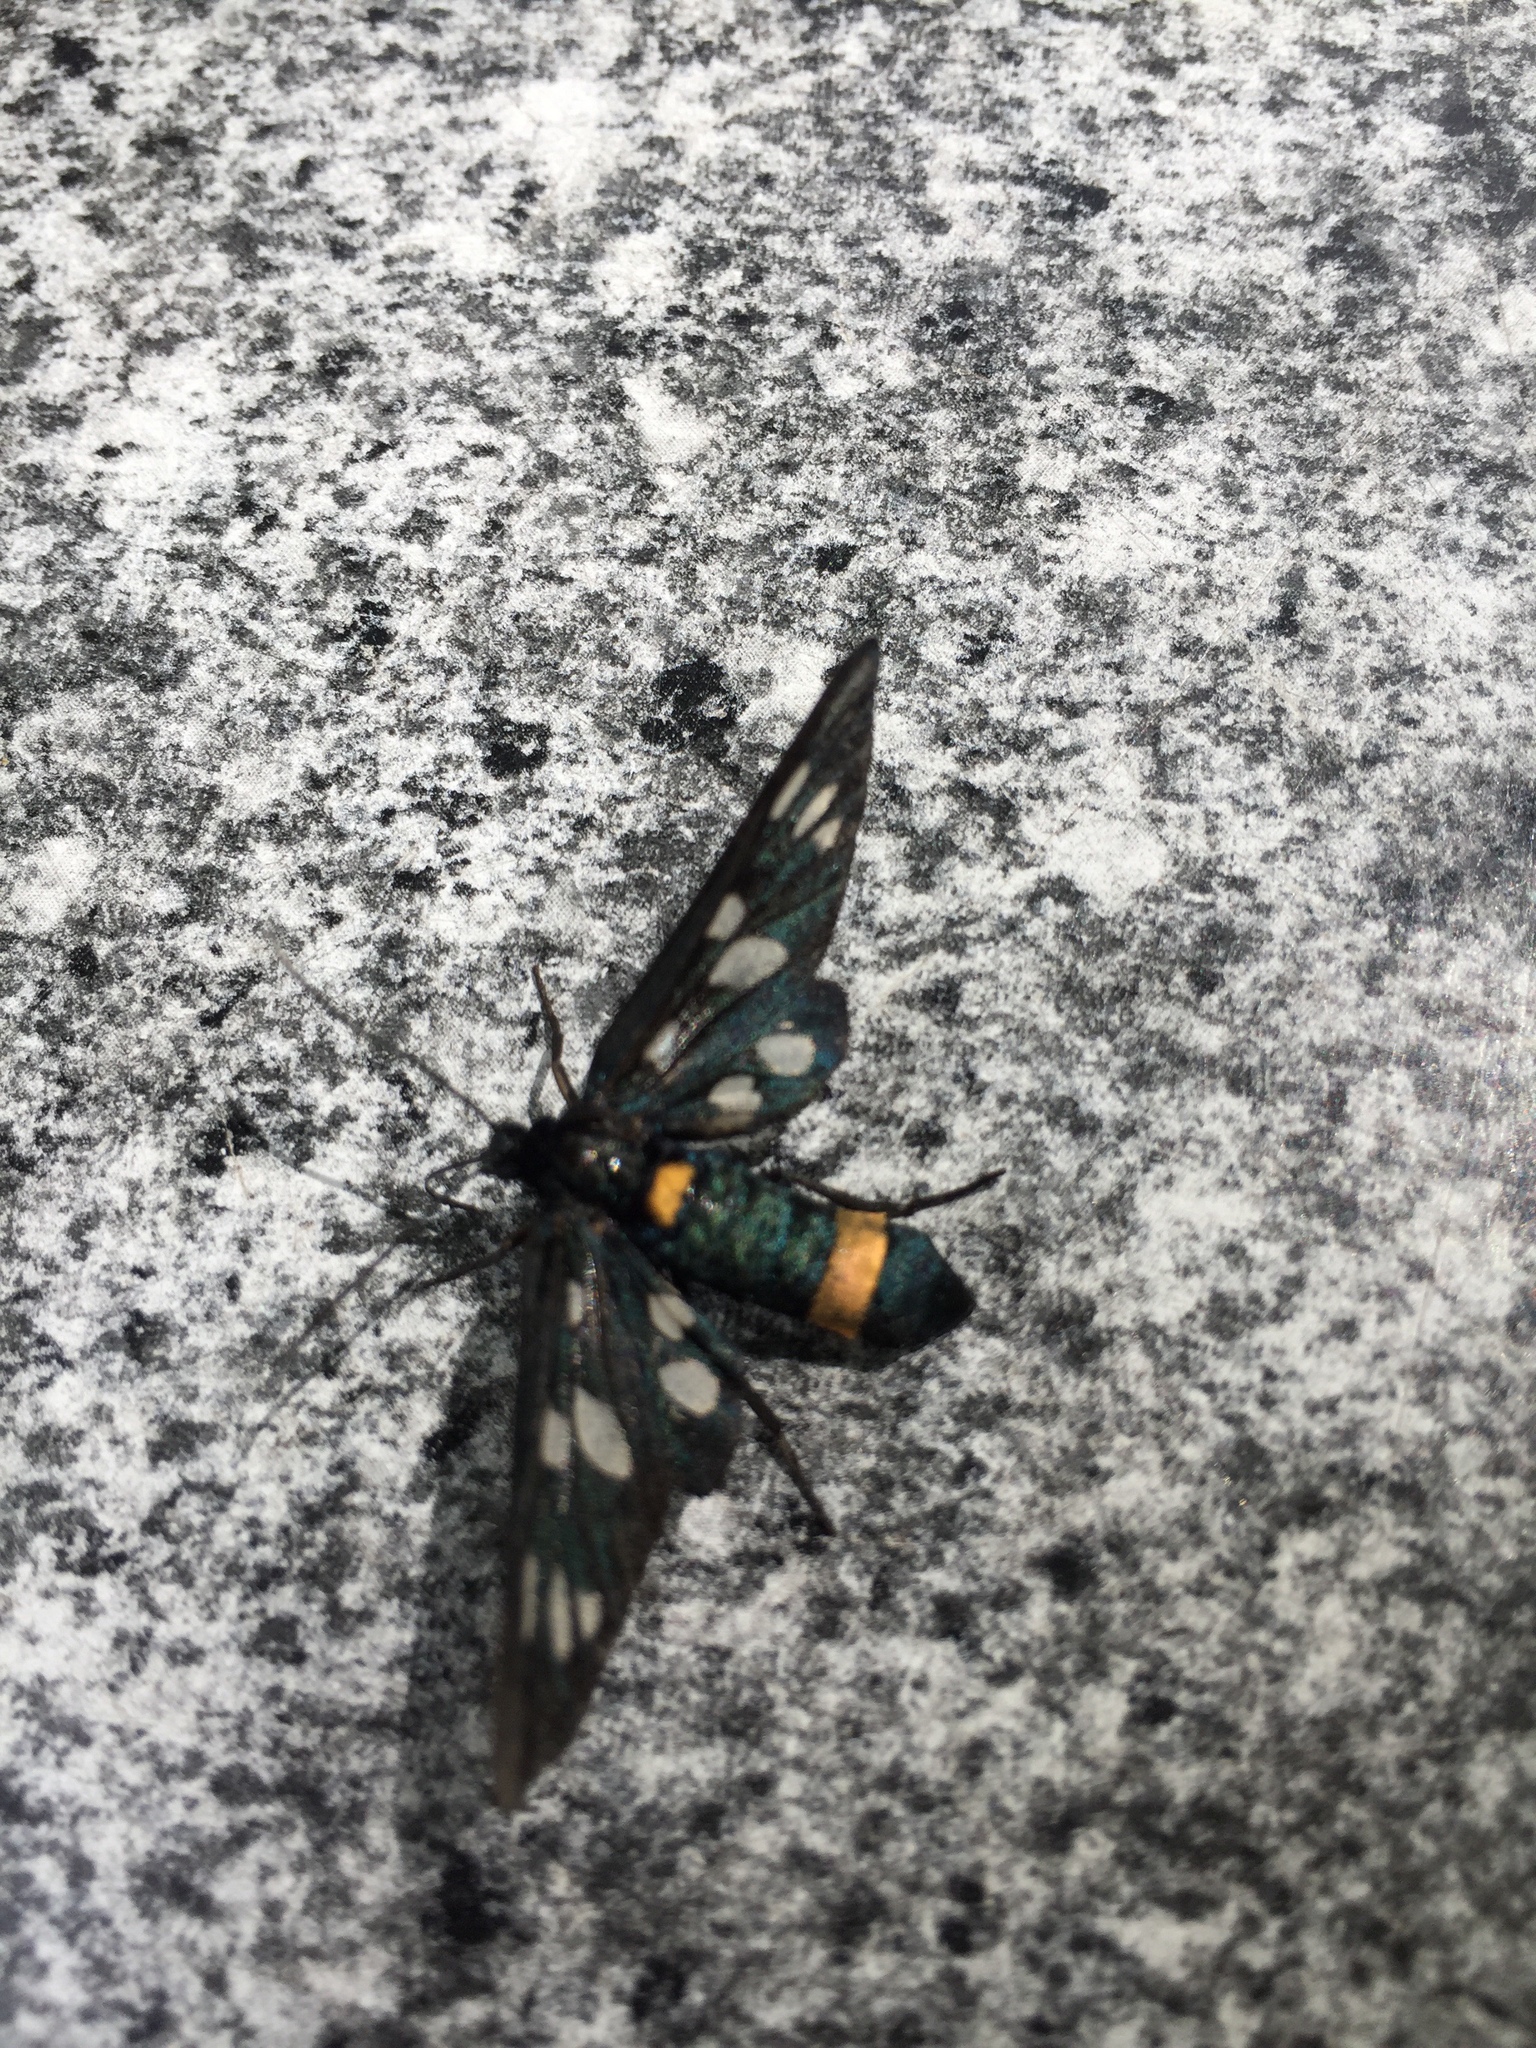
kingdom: Animalia
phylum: Arthropoda
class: Insecta
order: Lepidoptera
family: Erebidae
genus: Amata
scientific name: Amata phegea
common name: Nine-spotted
